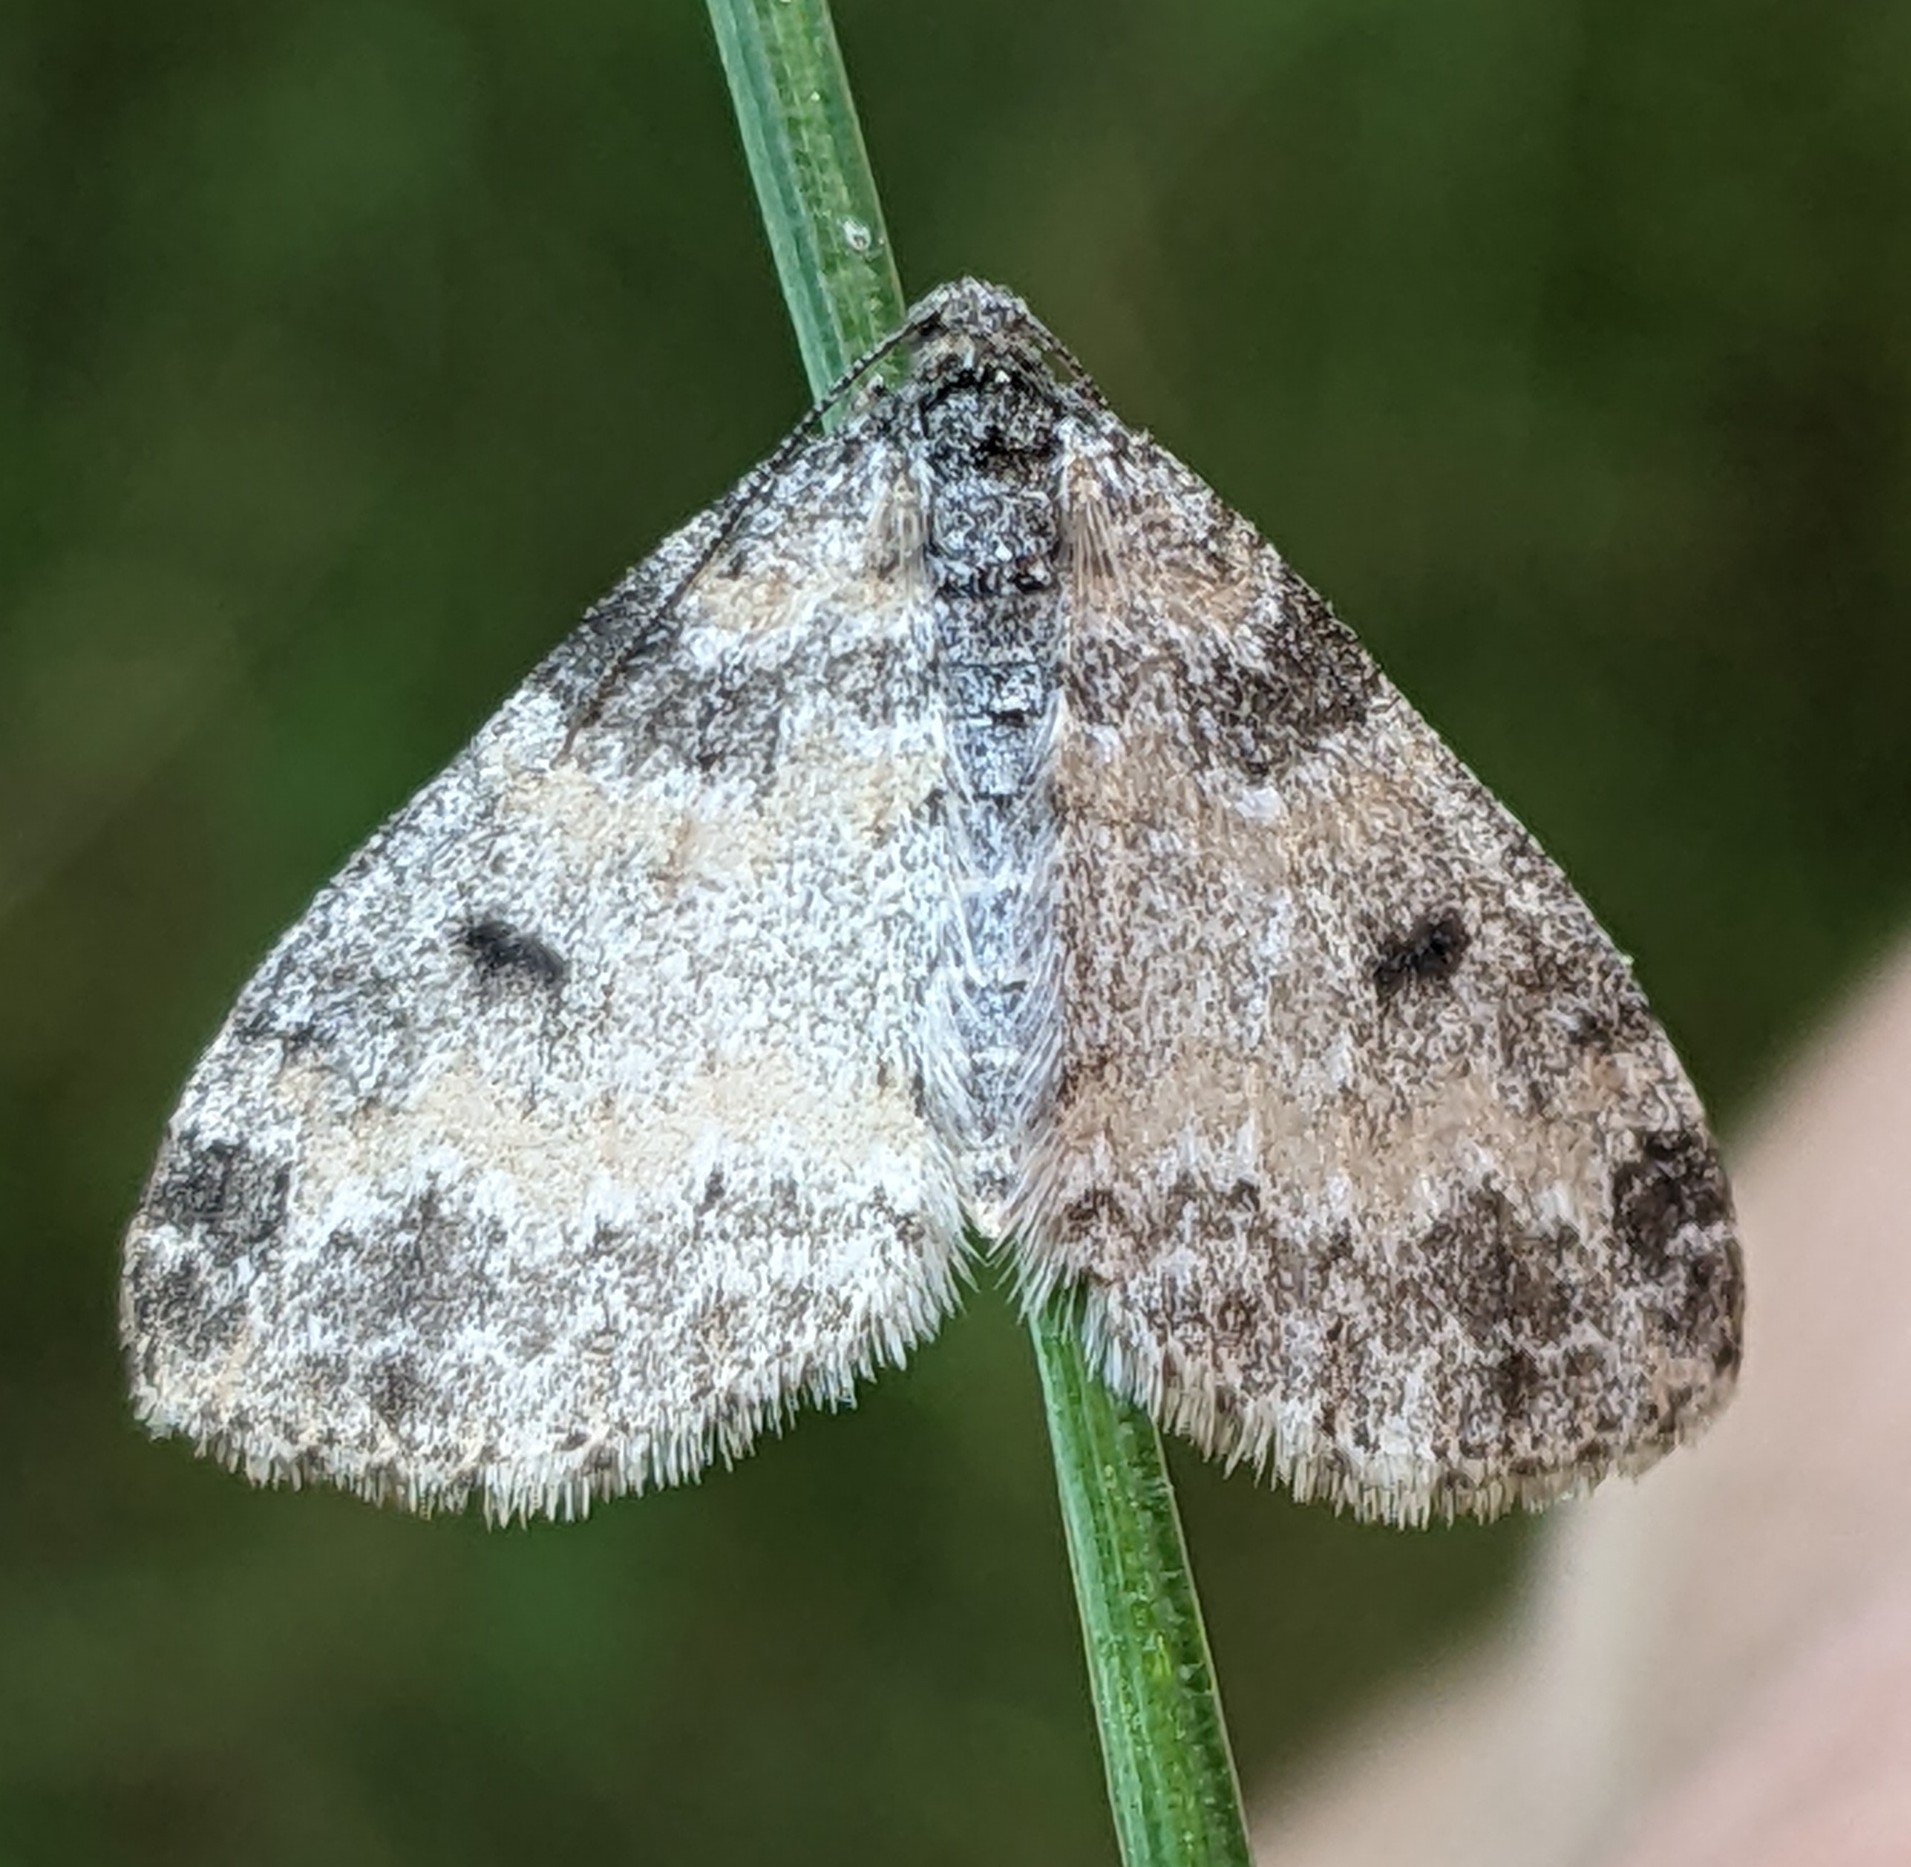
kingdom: Animalia
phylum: Arthropoda
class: Insecta
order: Lepidoptera
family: Geometridae
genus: Lobophora
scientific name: Lobophora nivigerata
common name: Powdered bigwing
